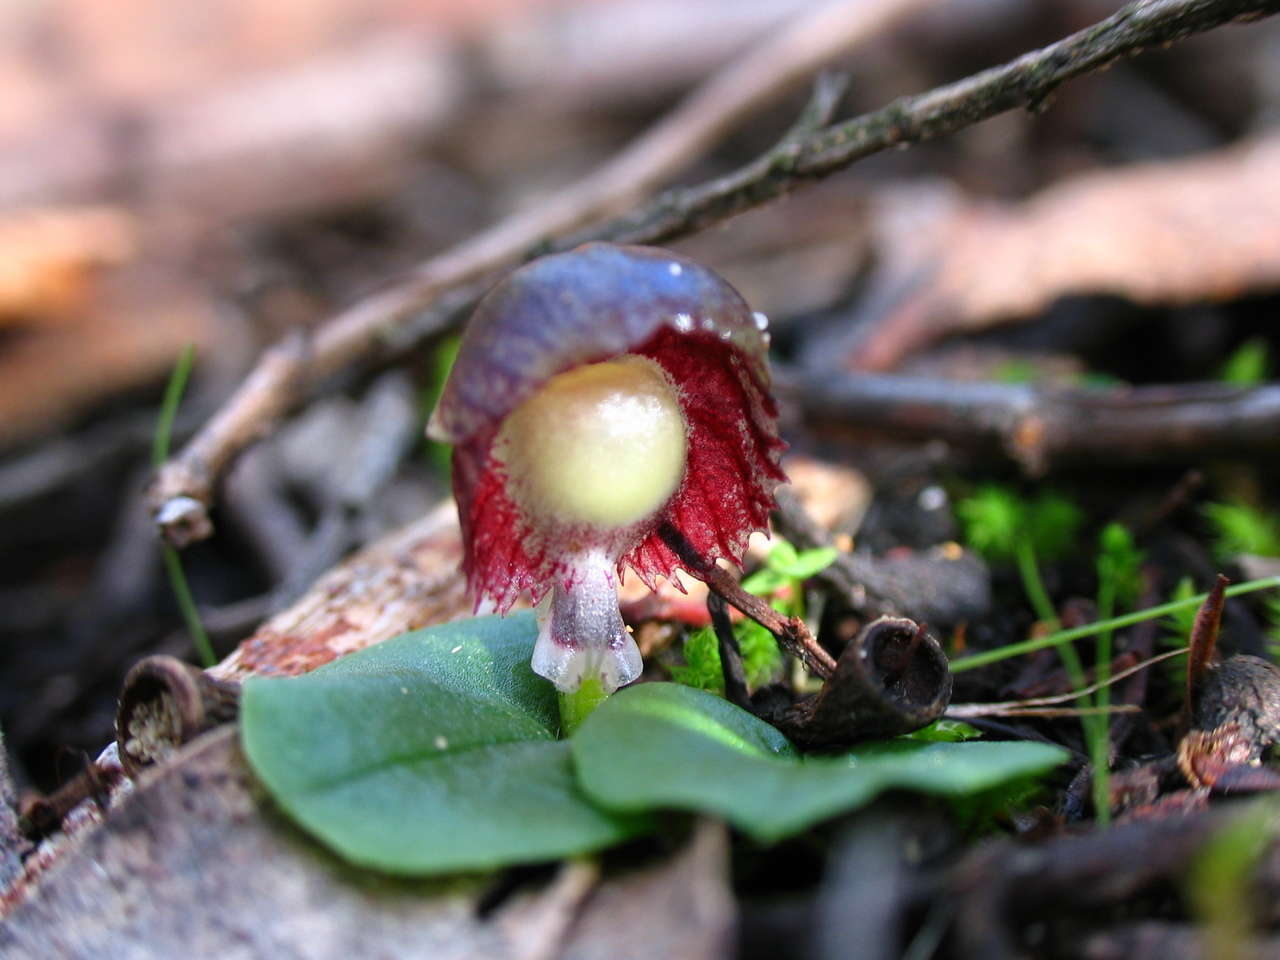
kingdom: Plantae
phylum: Tracheophyta
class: Liliopsida
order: Asparagales
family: Orchidaceae
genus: Corybas
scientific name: Corybas diemenicus
